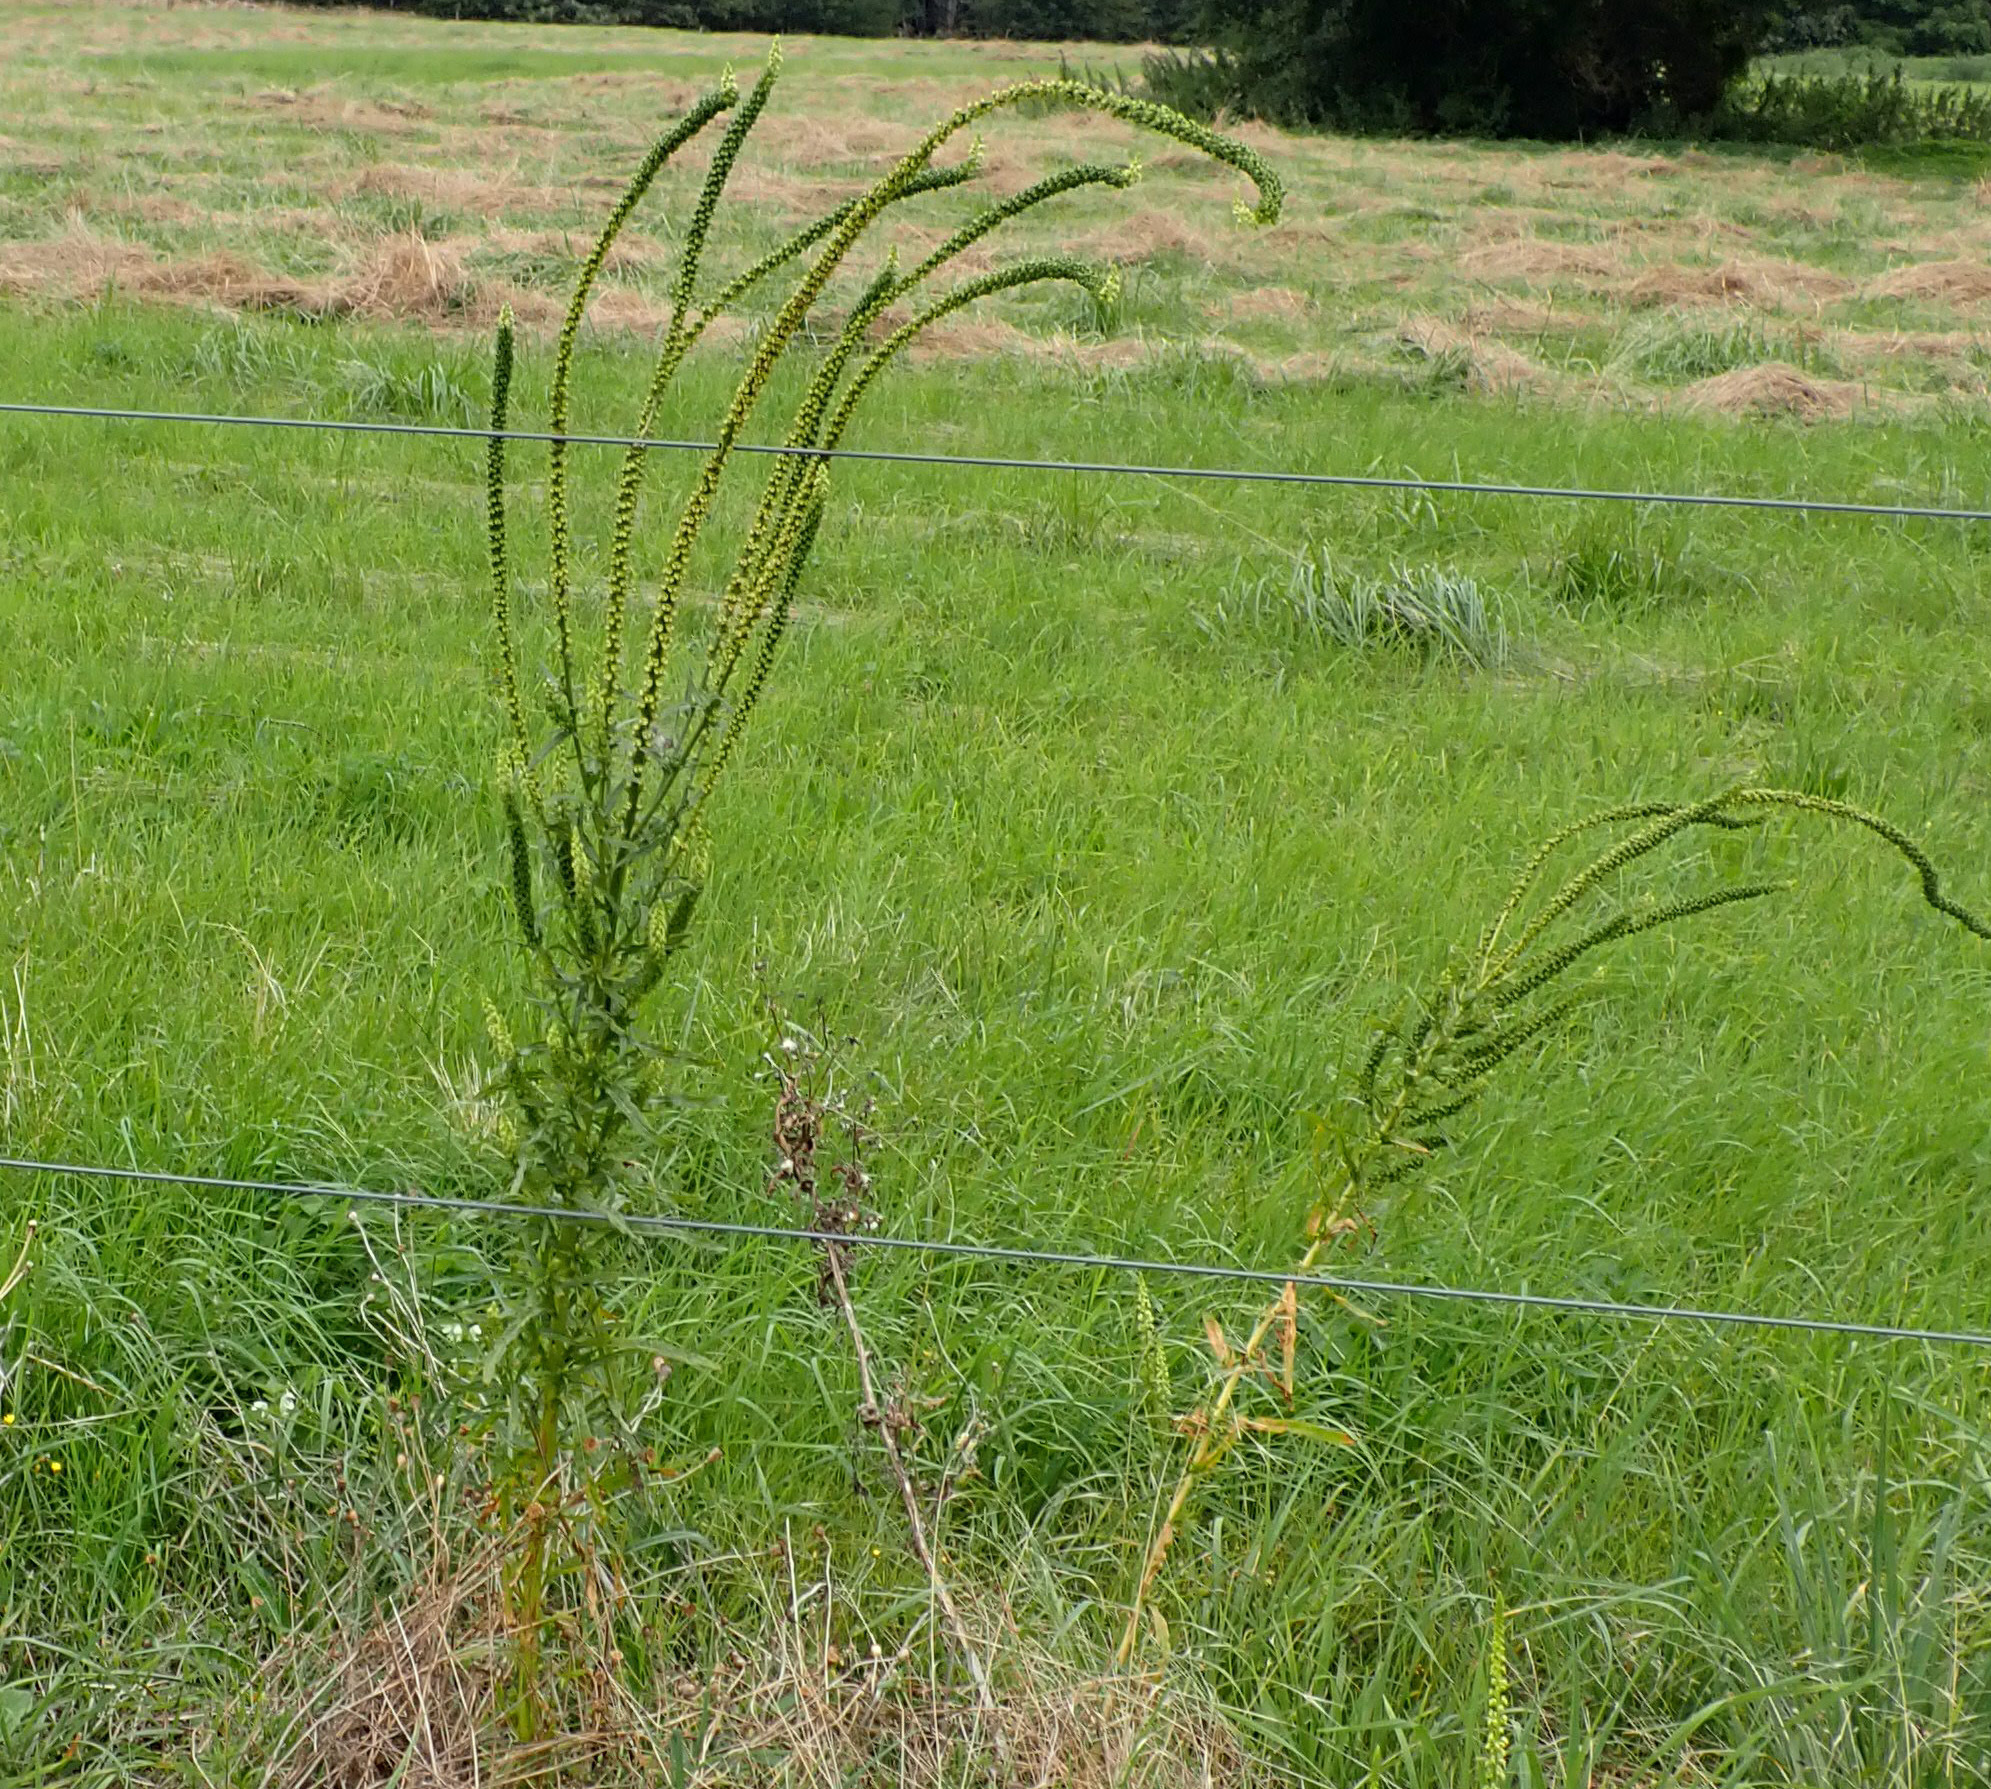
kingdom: Plantae
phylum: Tracheophyta
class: Magnoliopsida
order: Brassicales
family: Resedaceae
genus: Reseda
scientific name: Reseda luteola
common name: Weld
